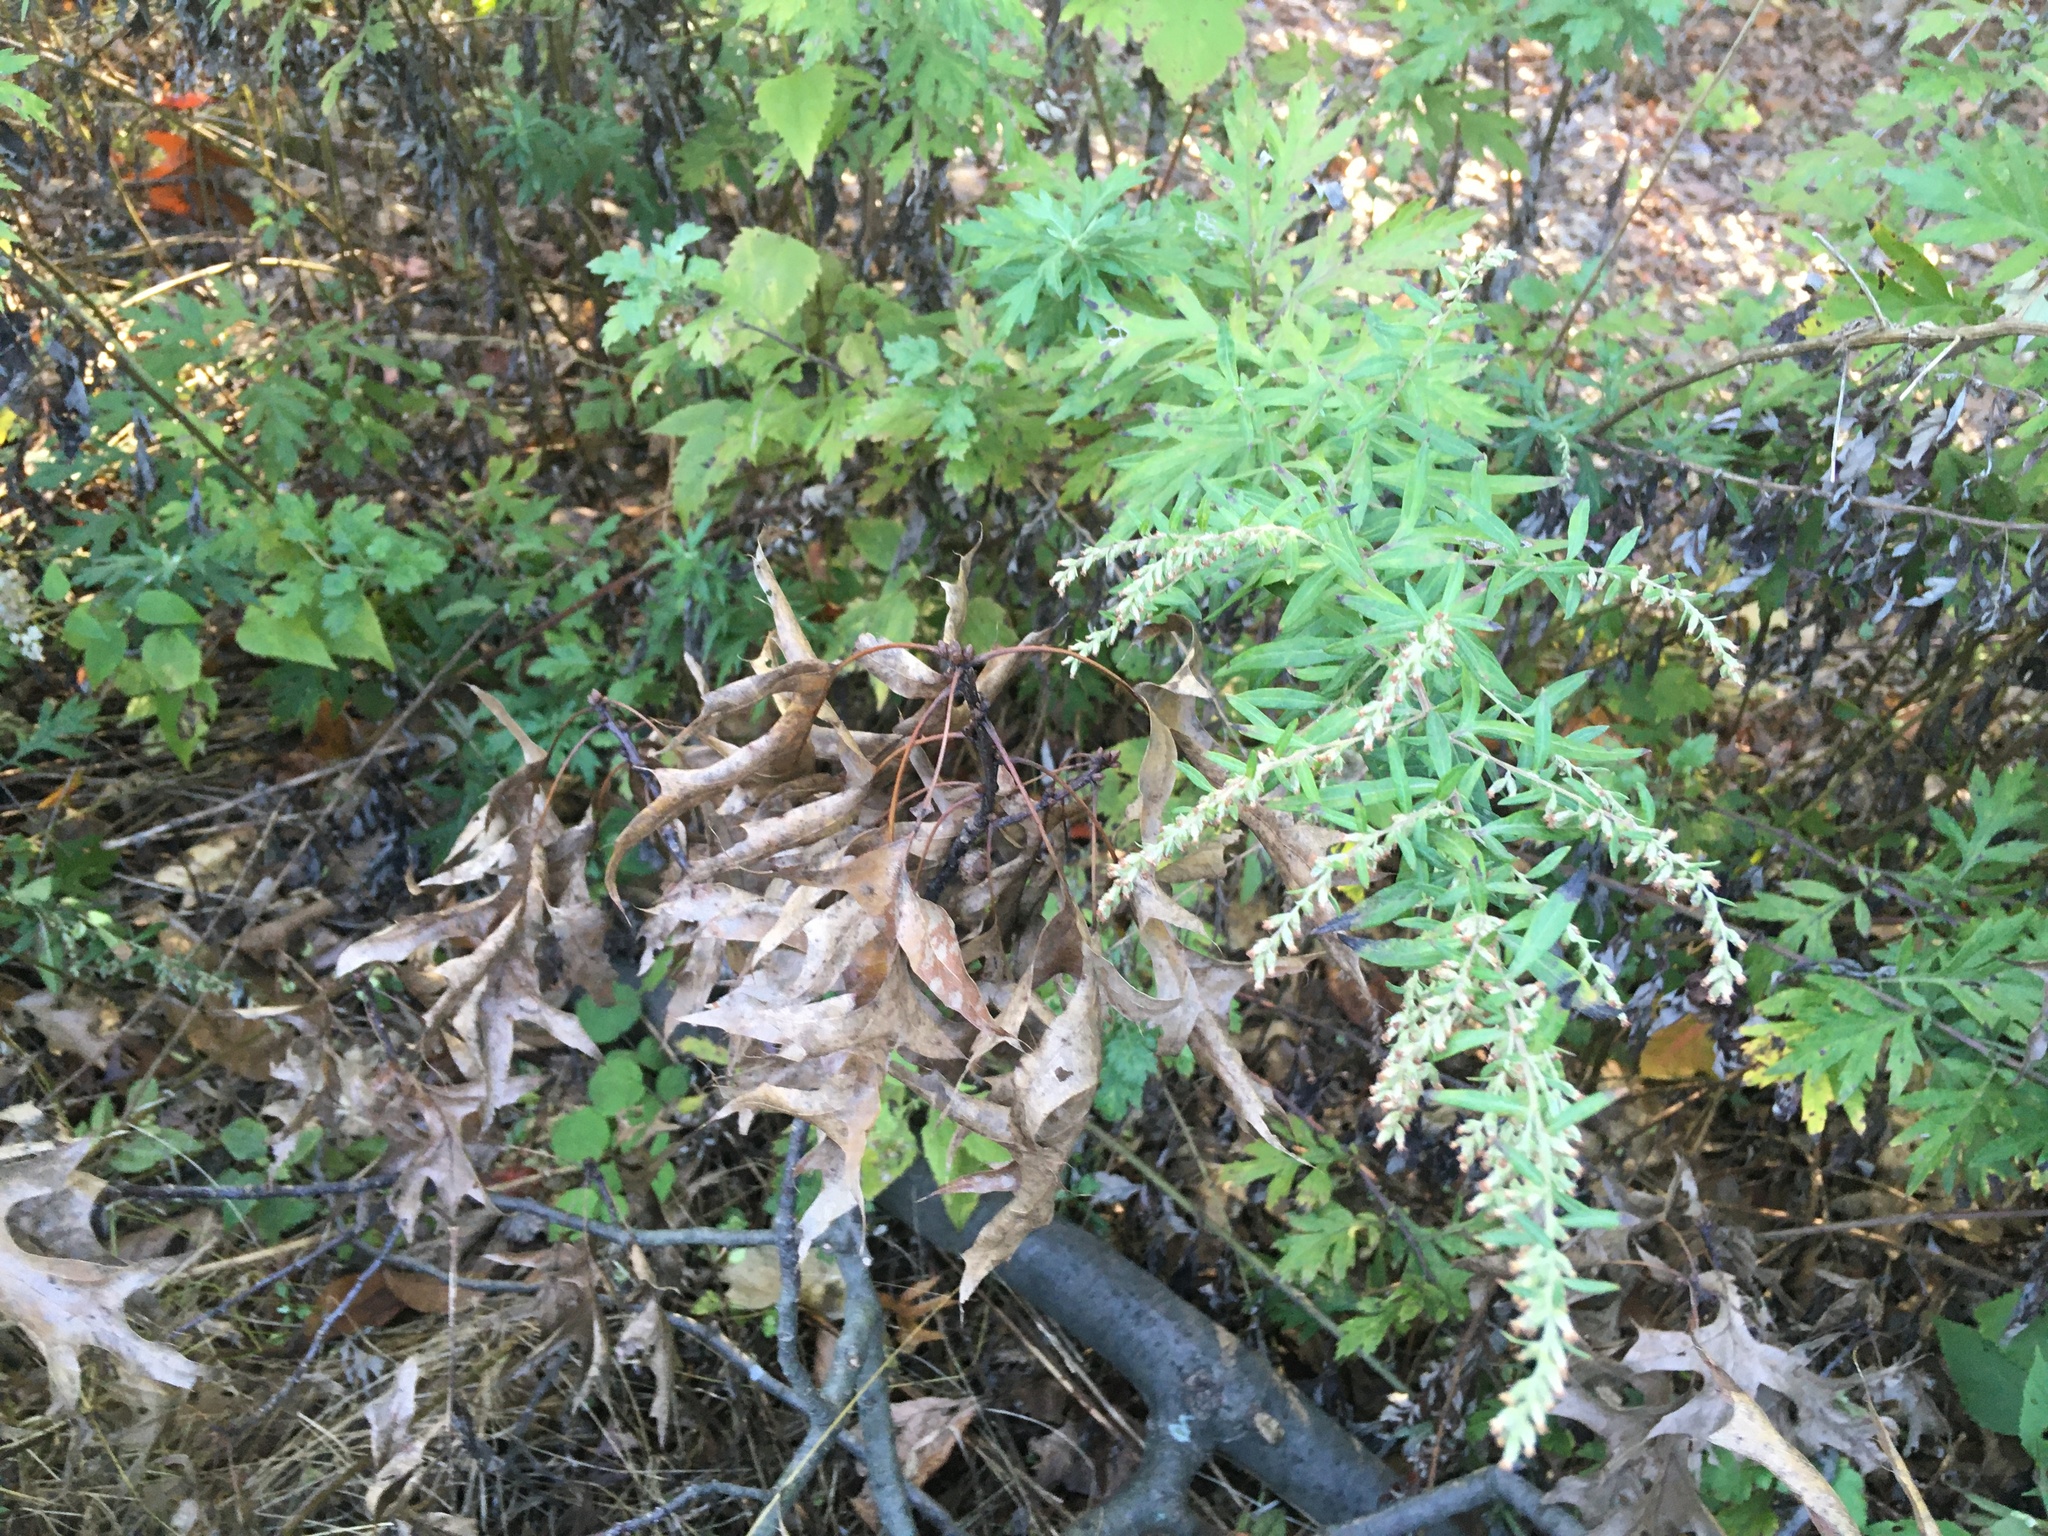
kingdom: Plantae
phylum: Tracheophyta
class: Magnoliopsida
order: Asterales
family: Asteraceae
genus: Artemisia
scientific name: Artemisia vulgaris
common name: Mugwort
